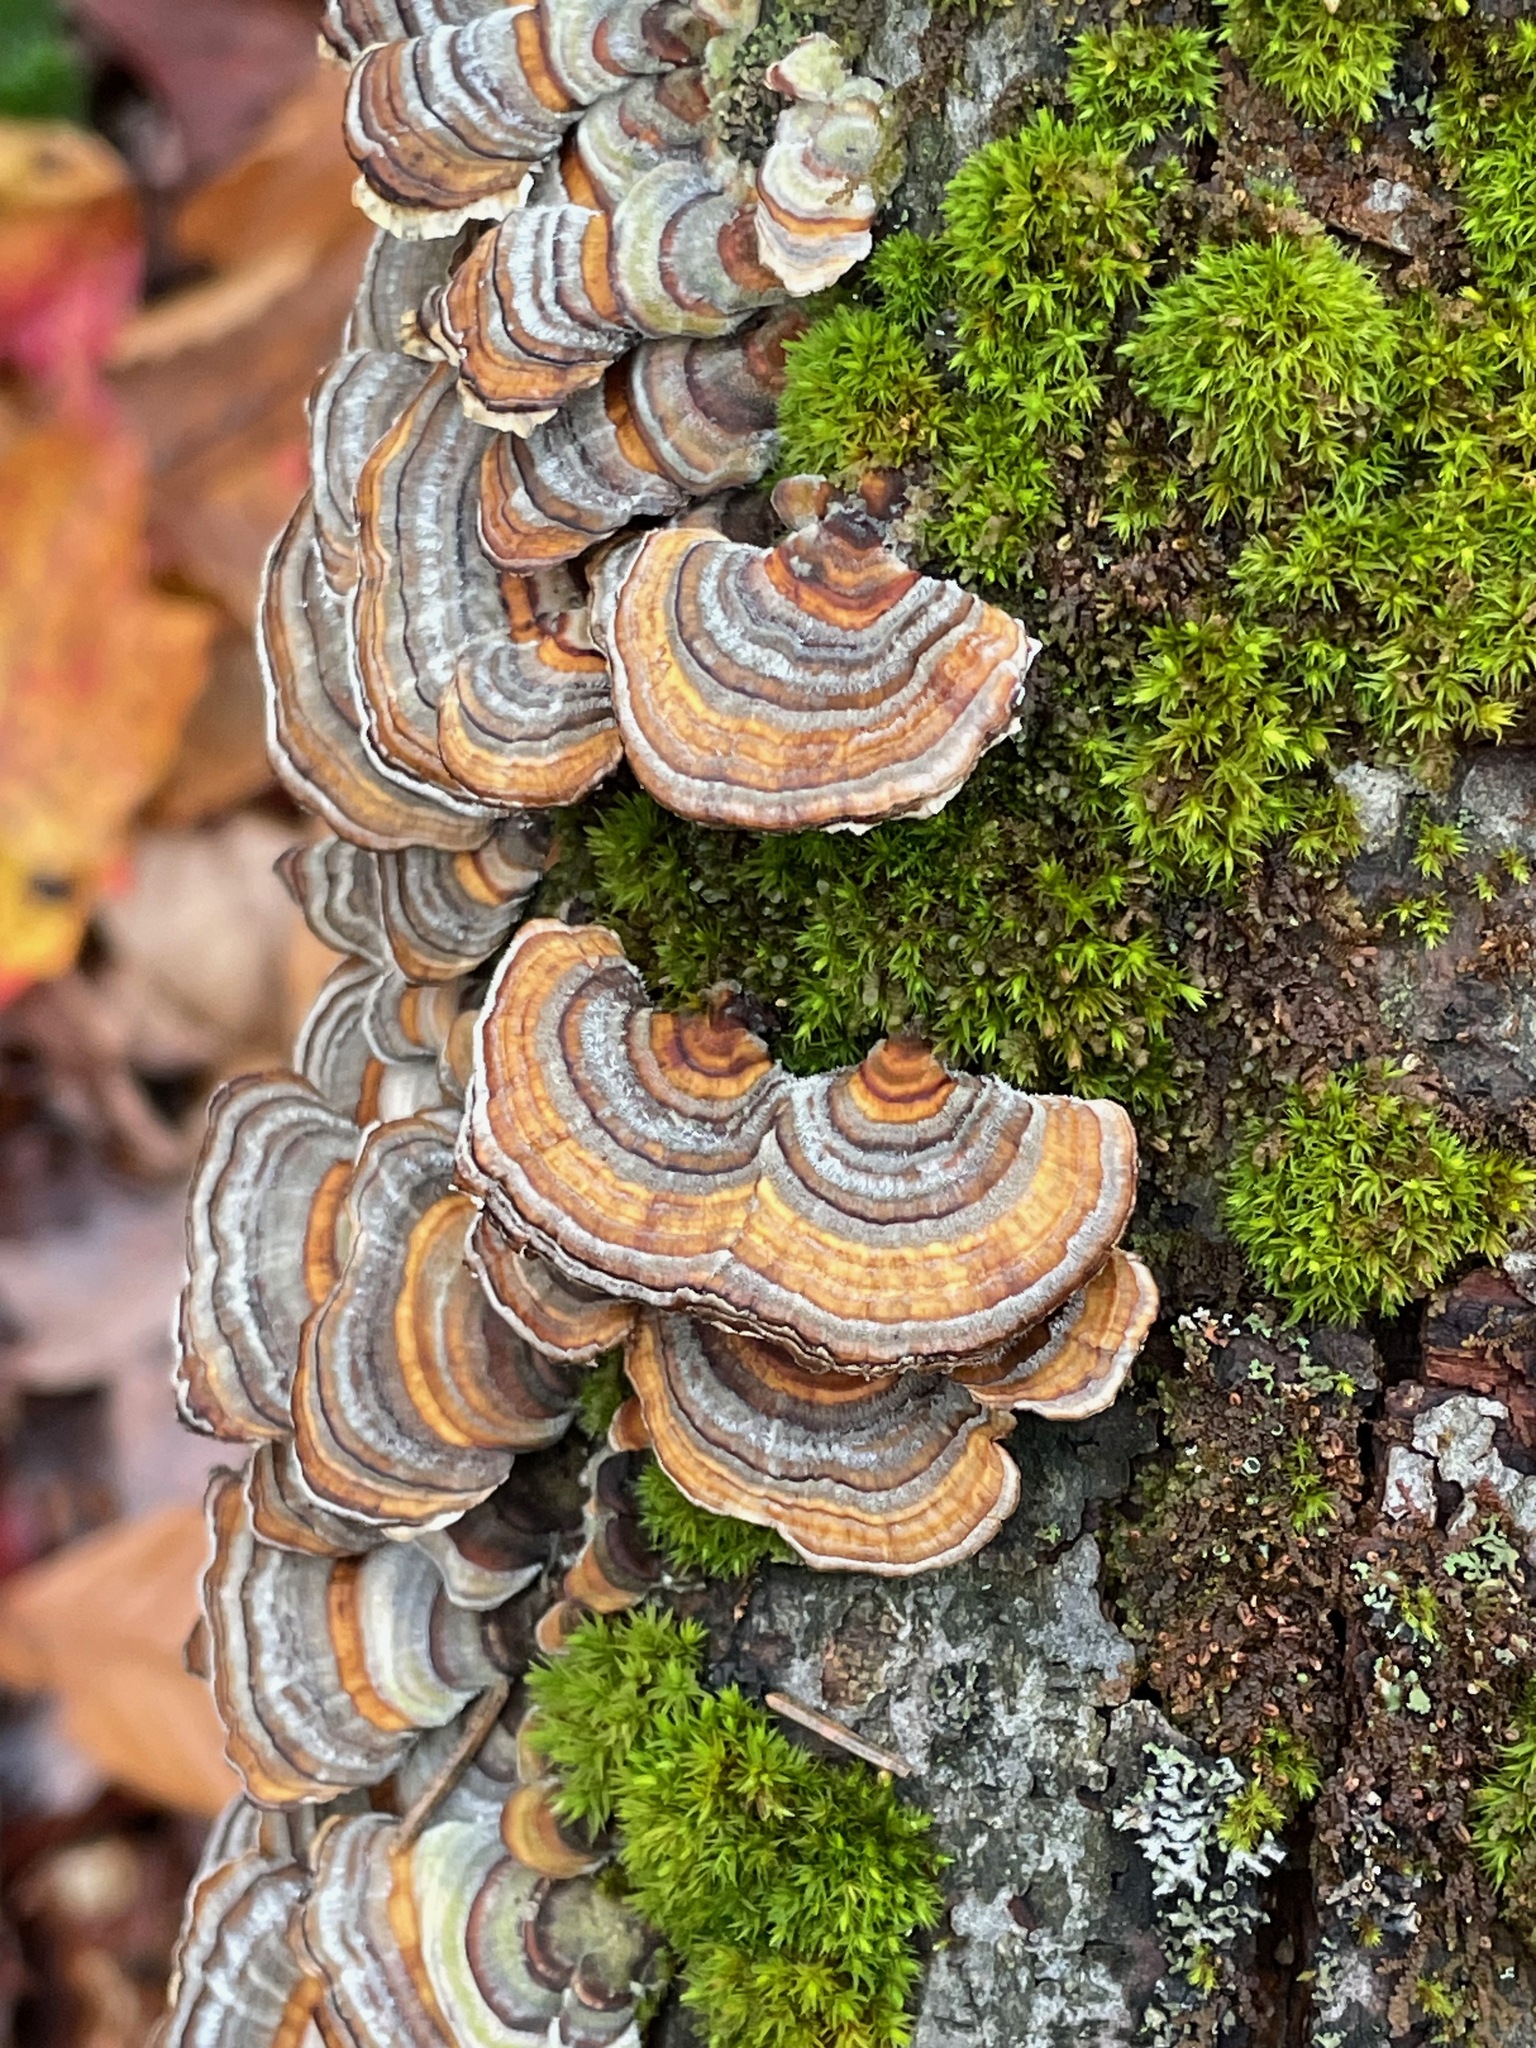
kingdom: Fungi
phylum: Basidiomycota
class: Agaricomycetes
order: Polyporales
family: Polyporaceae
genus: Trametes
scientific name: Trametes versicolor
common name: Turkeytail
